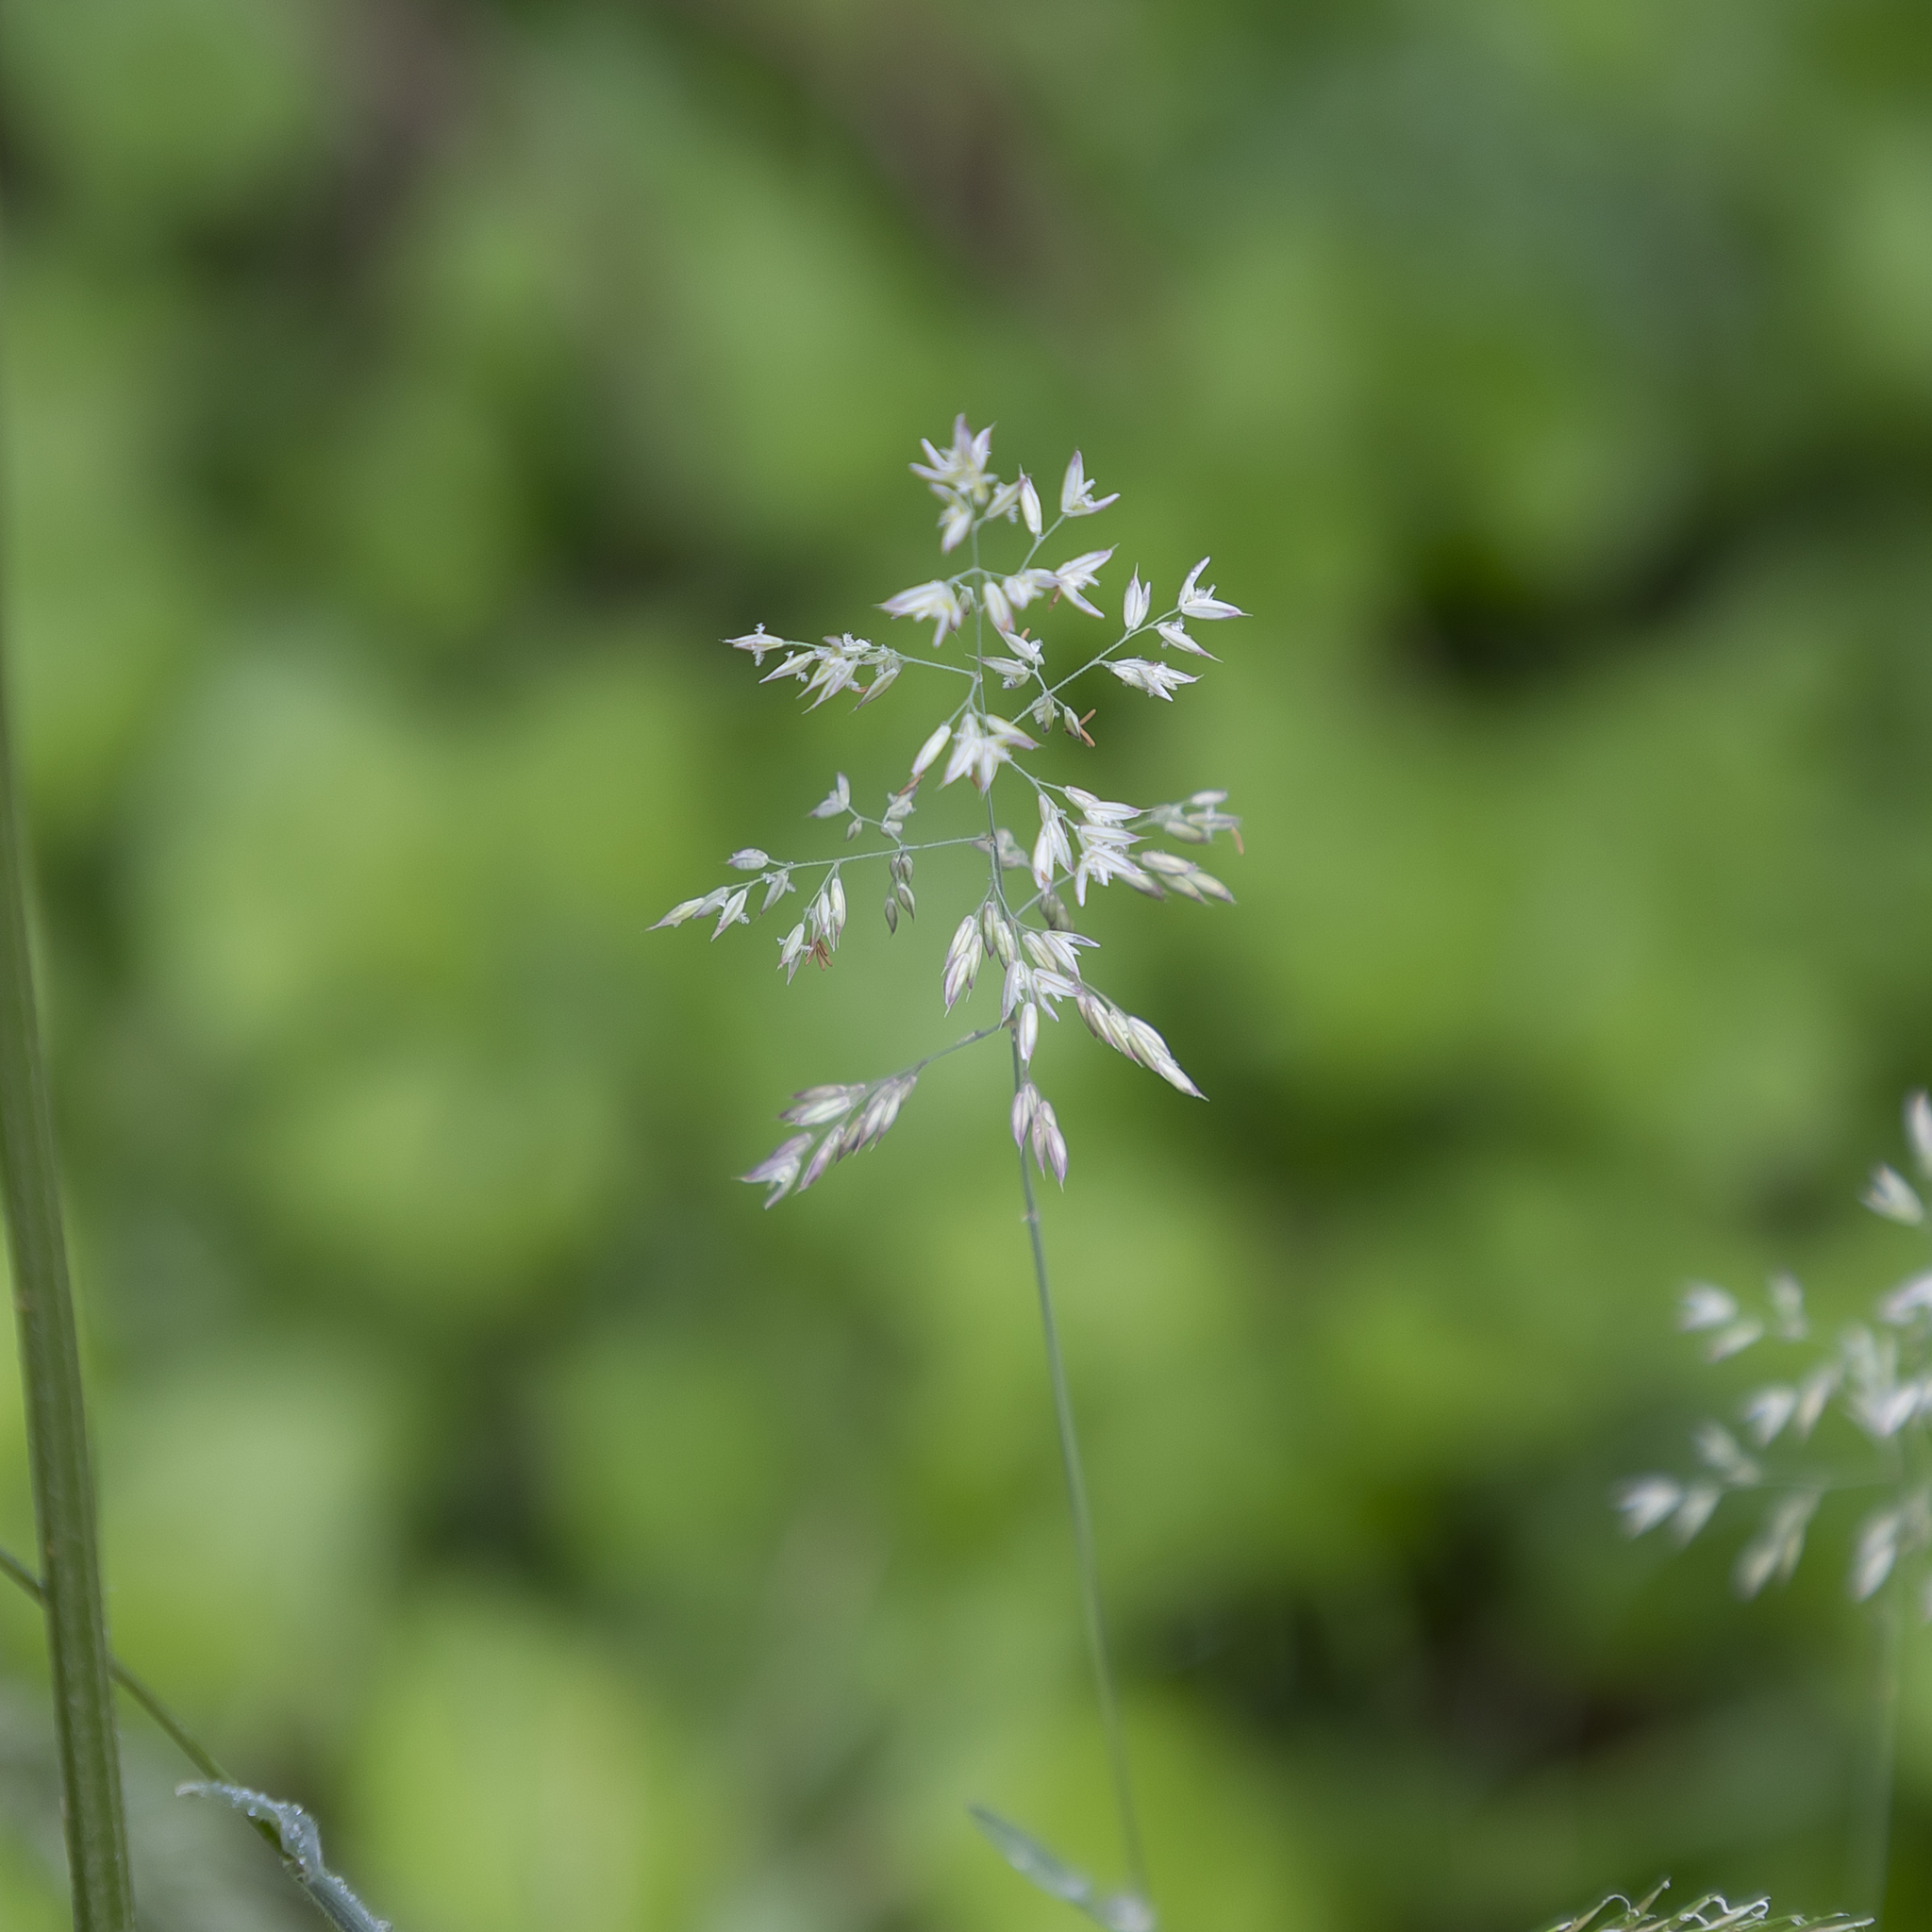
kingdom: Plantae
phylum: Tracheophyta
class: Liliopsida
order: Poales
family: Poaceae
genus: Holcus
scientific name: Holcus lanatus
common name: Yorkshire-fog
